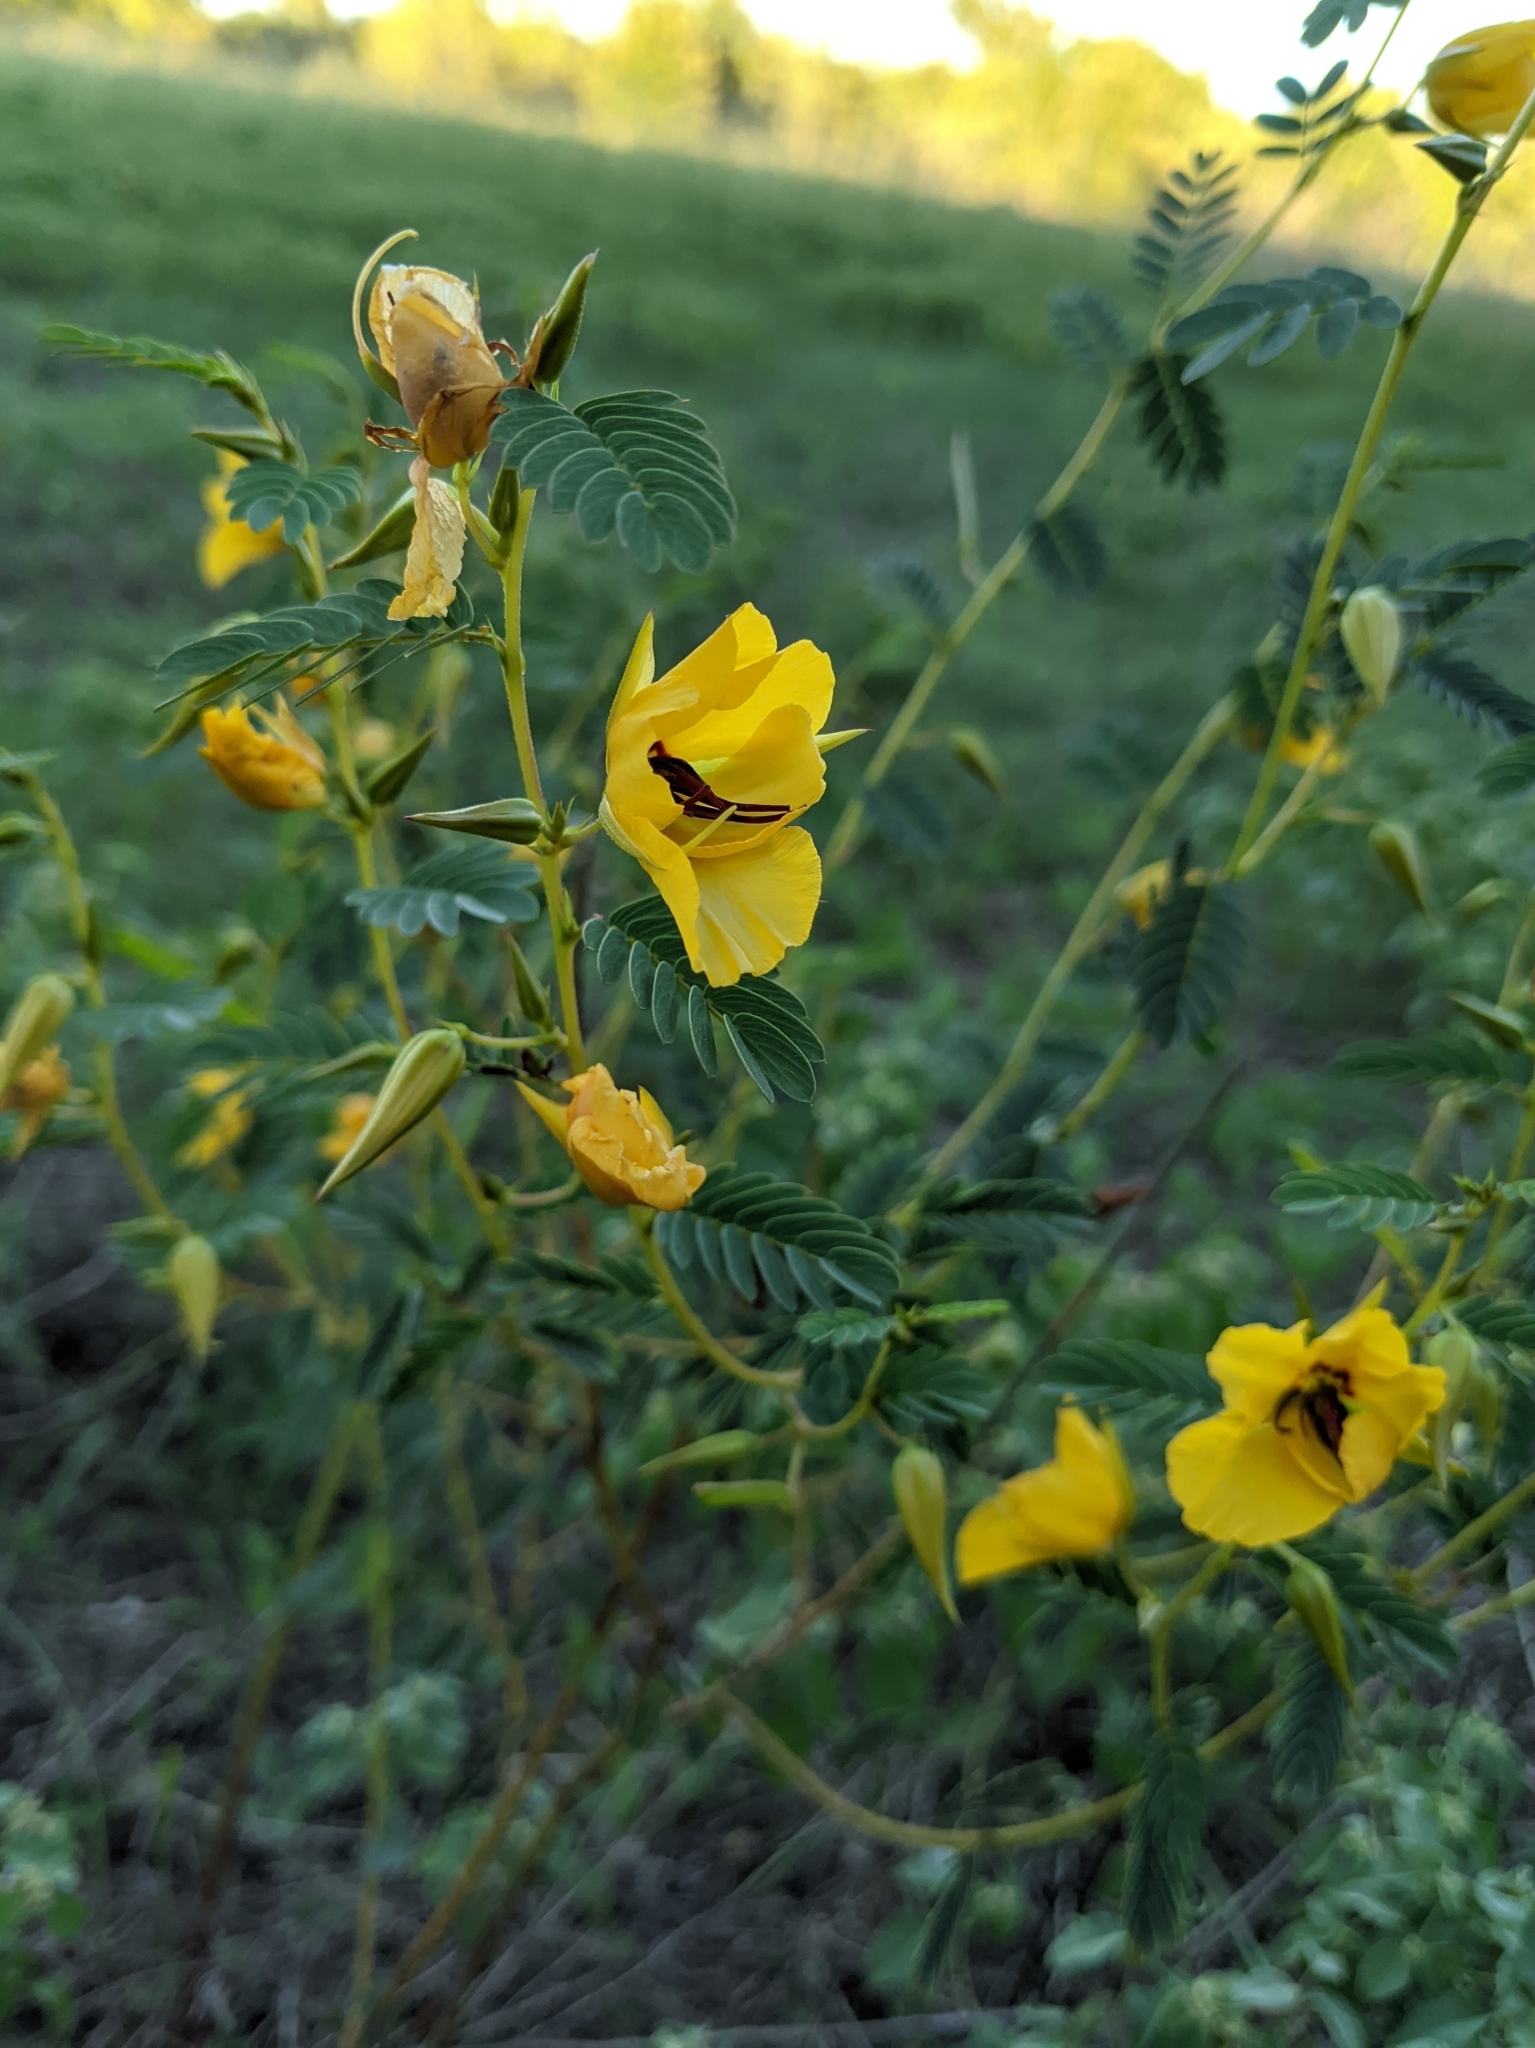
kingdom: Plantae
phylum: Tracheophyta
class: Magnoliopsida
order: Fabales
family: Fabaceae
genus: Chamaecrista
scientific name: Chamaecrista fasciculata
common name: Golden cassia
